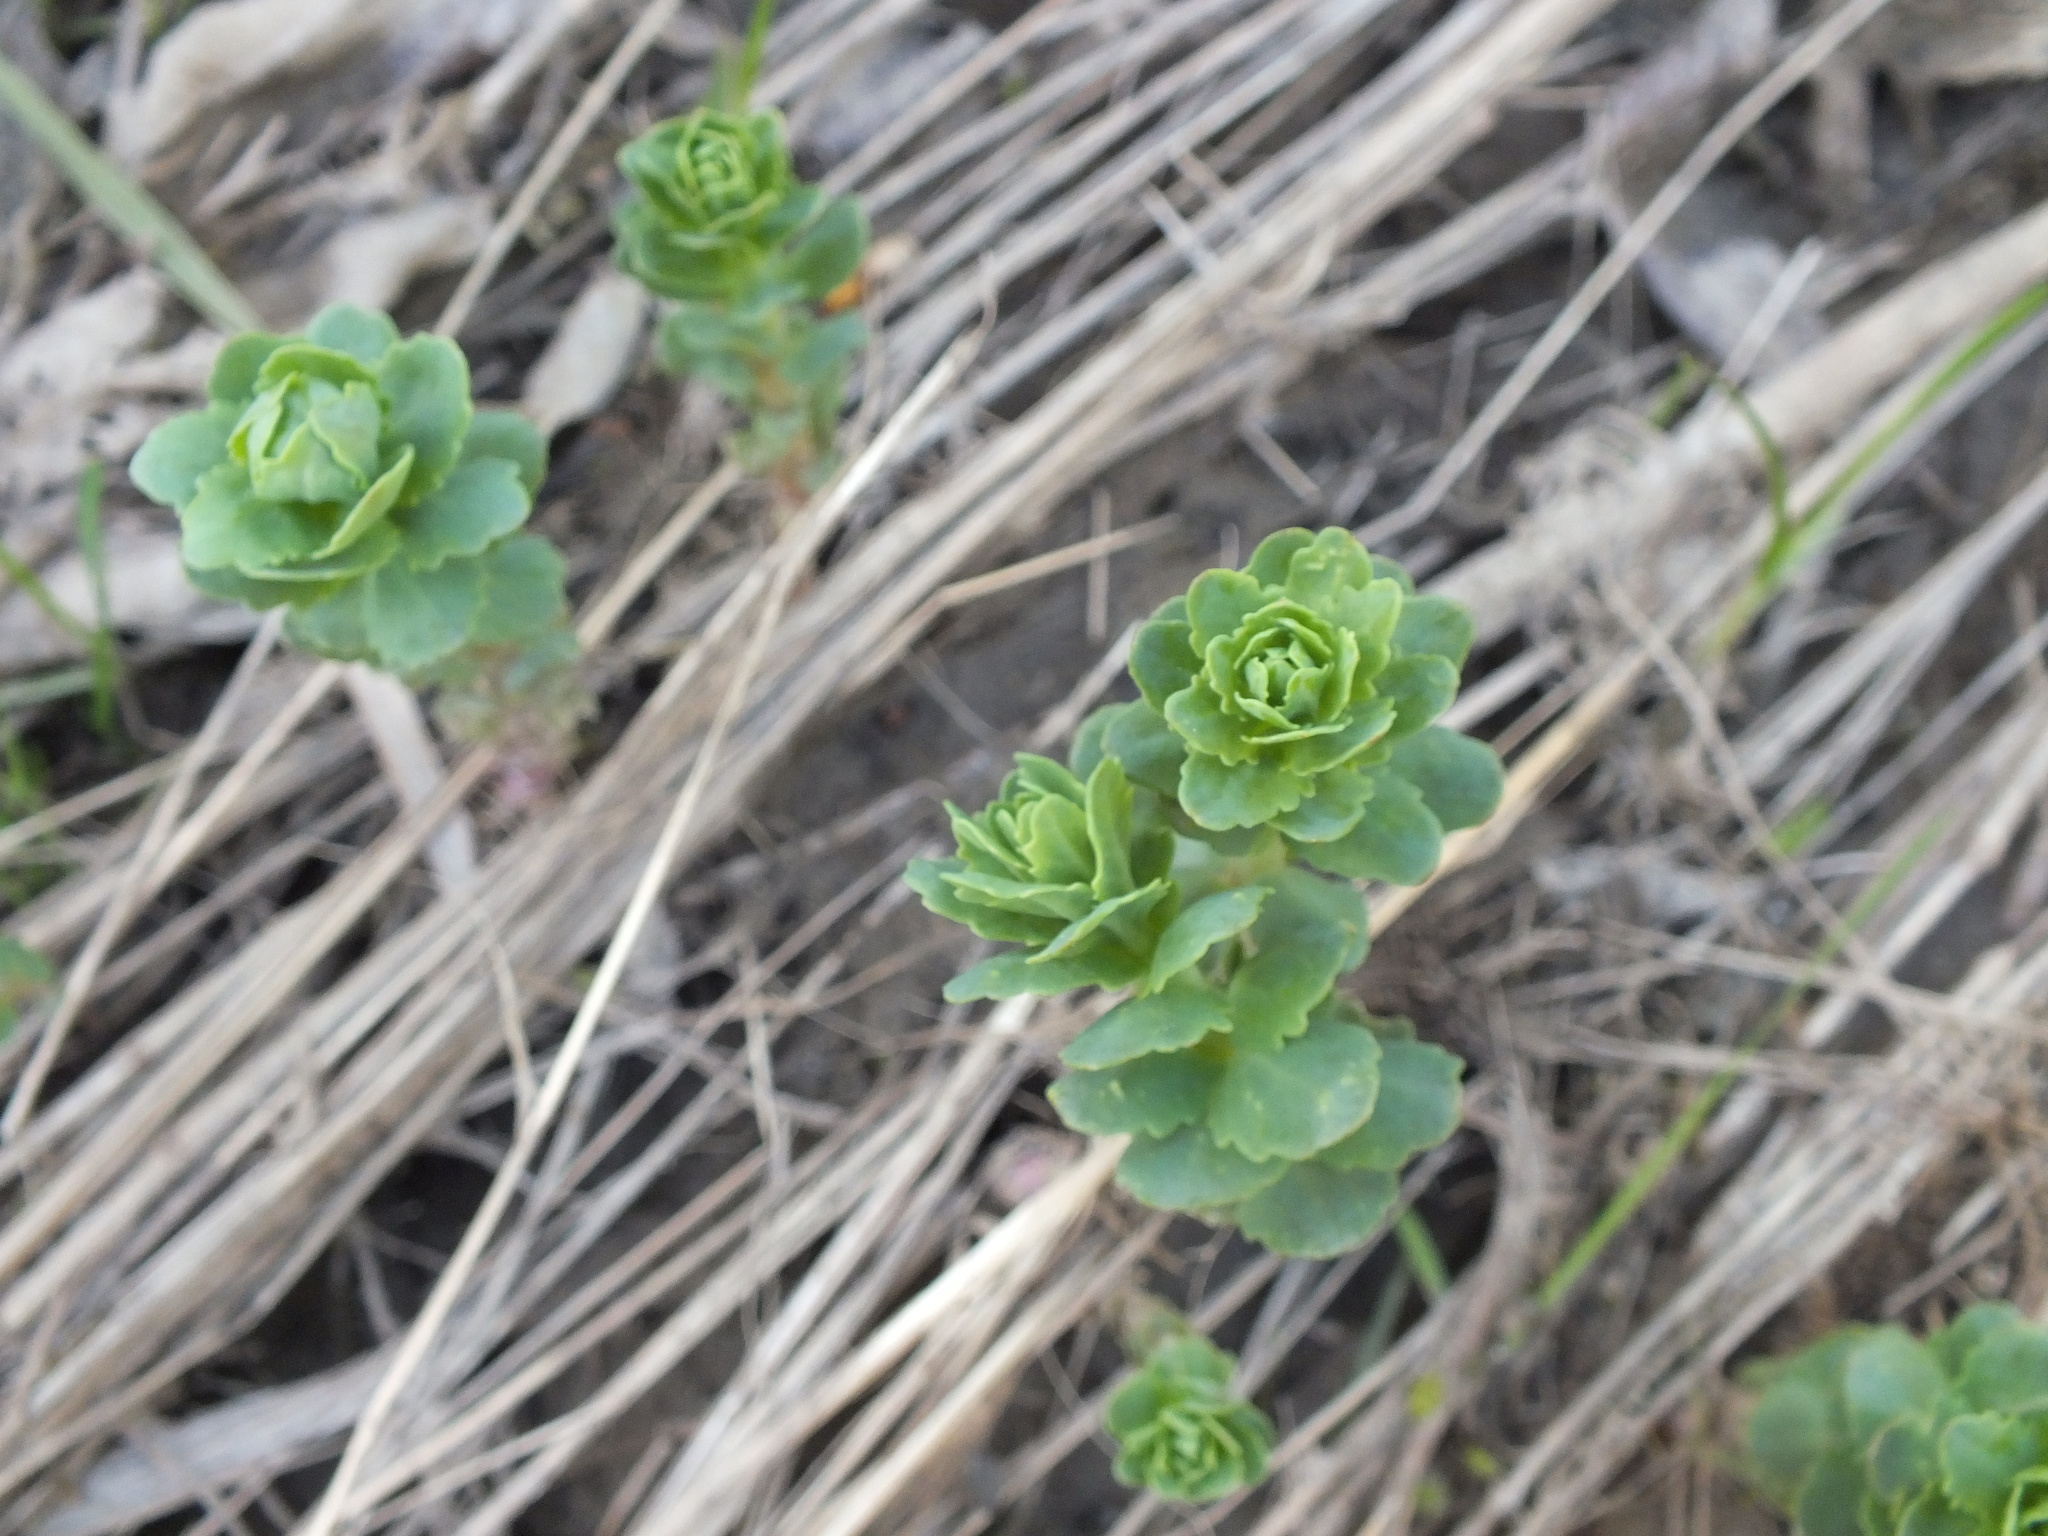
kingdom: Plantae
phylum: Tracheophyta
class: Magnoliopsida
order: Saxifragales
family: Crassulaceae
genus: Hylotelephium
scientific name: Hylotelephium telephium
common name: Live-forever
